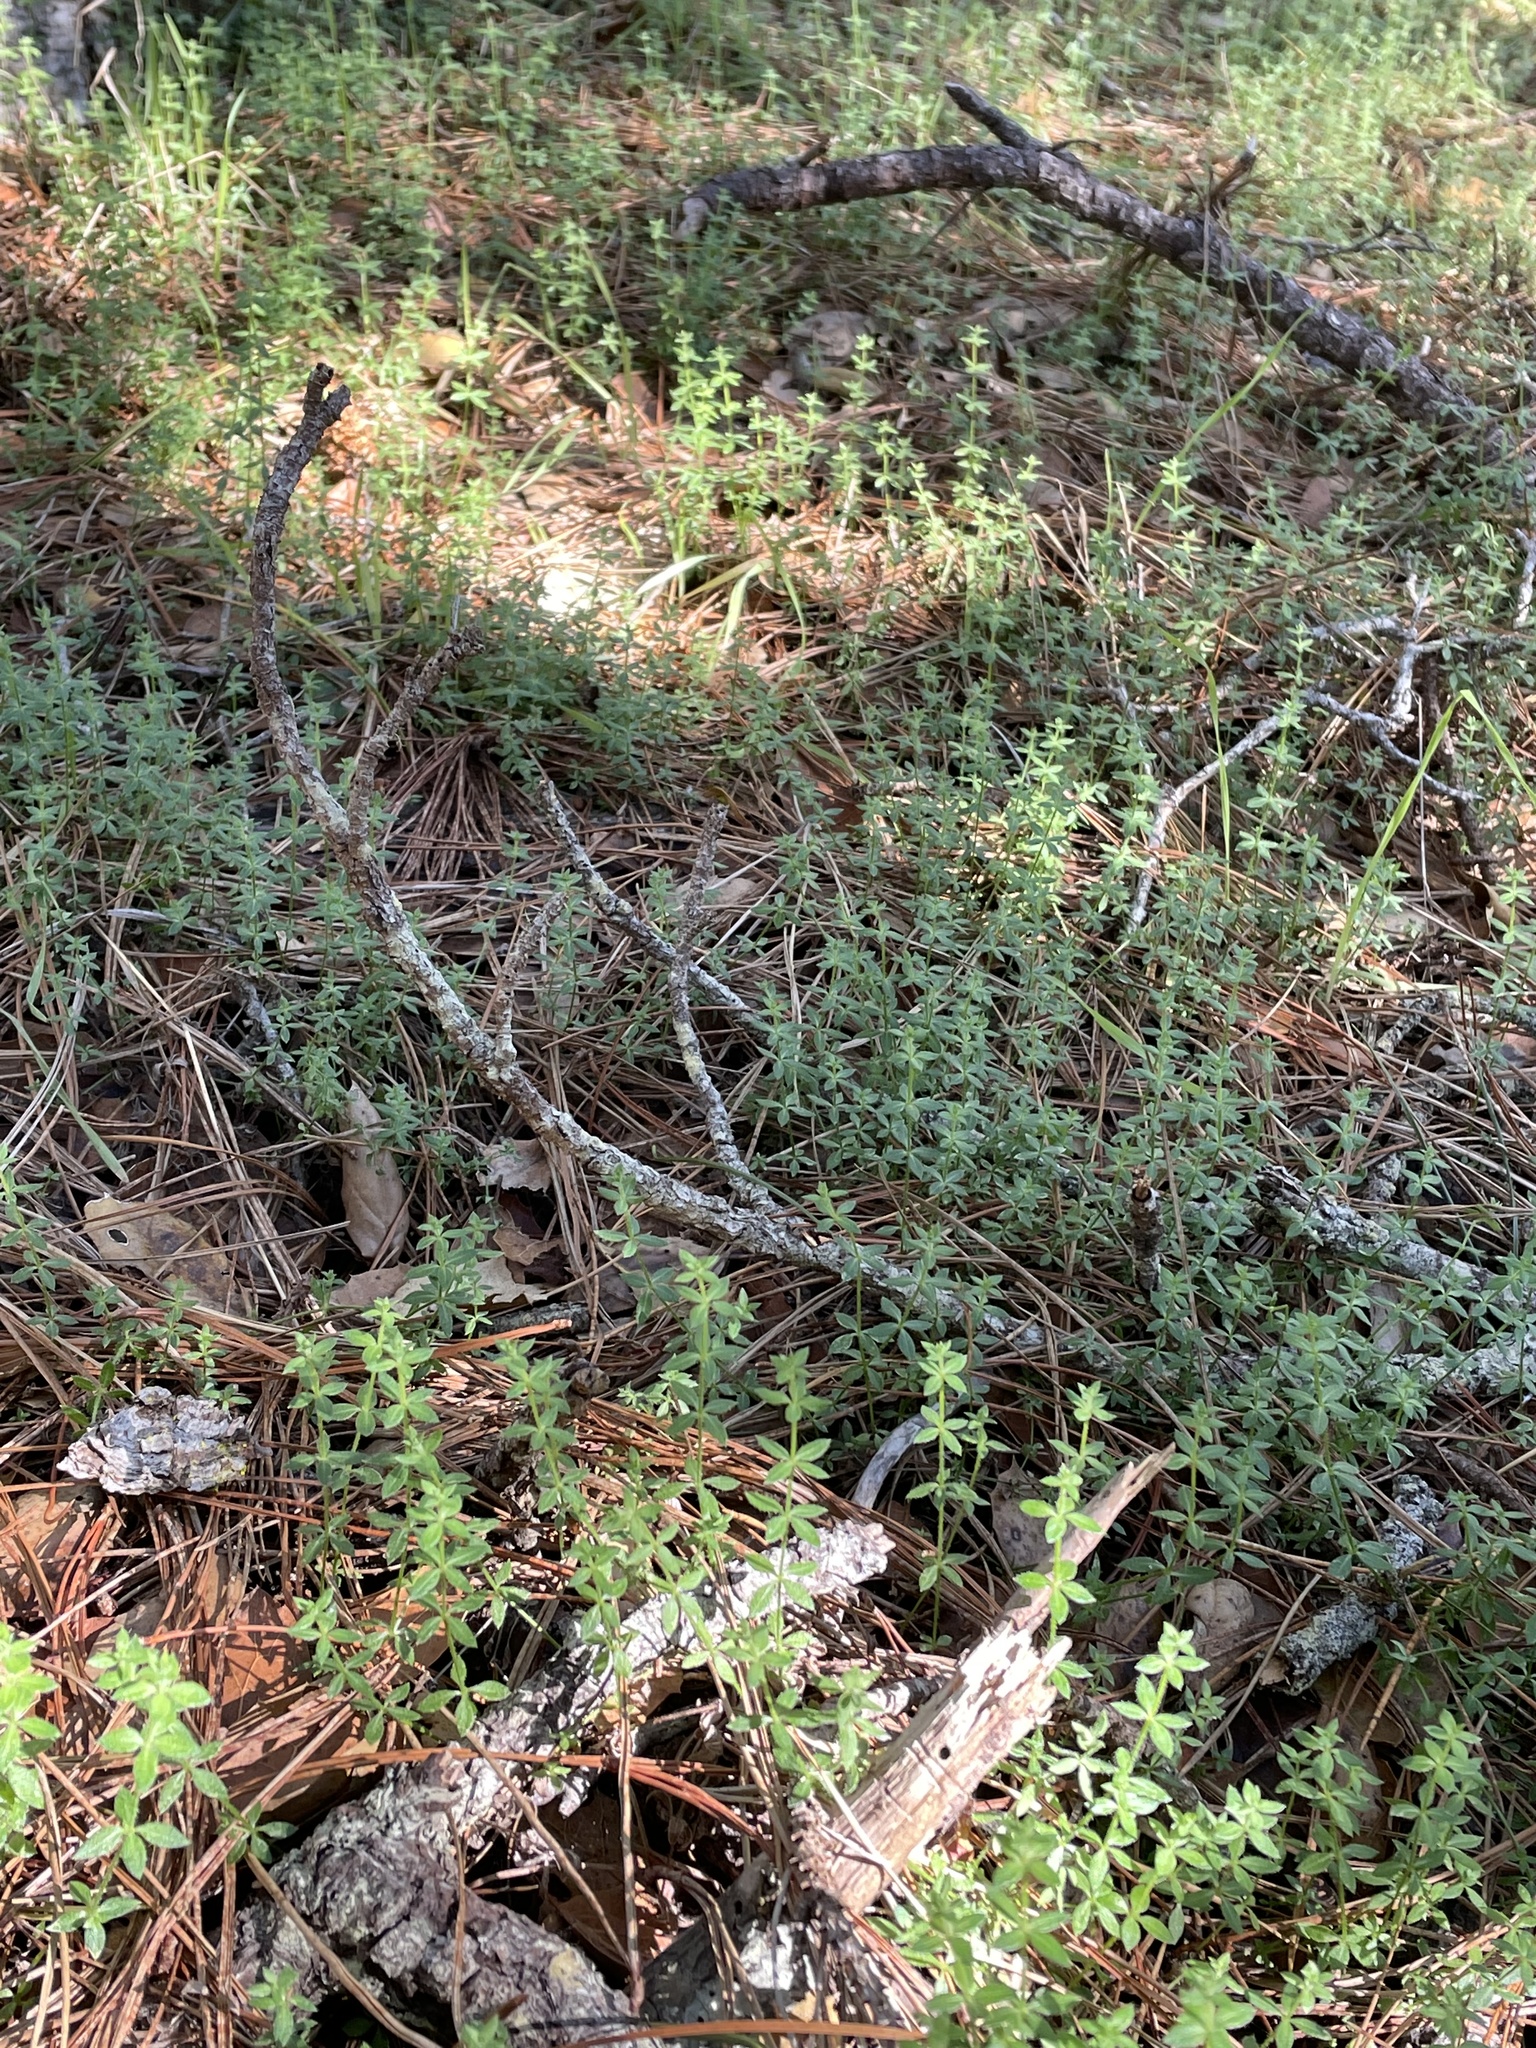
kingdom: Plantae
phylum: Tracheophyta
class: Magnoliopsida
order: Gentianales
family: Rubiaceae
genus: Galium
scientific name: Galium californicum
